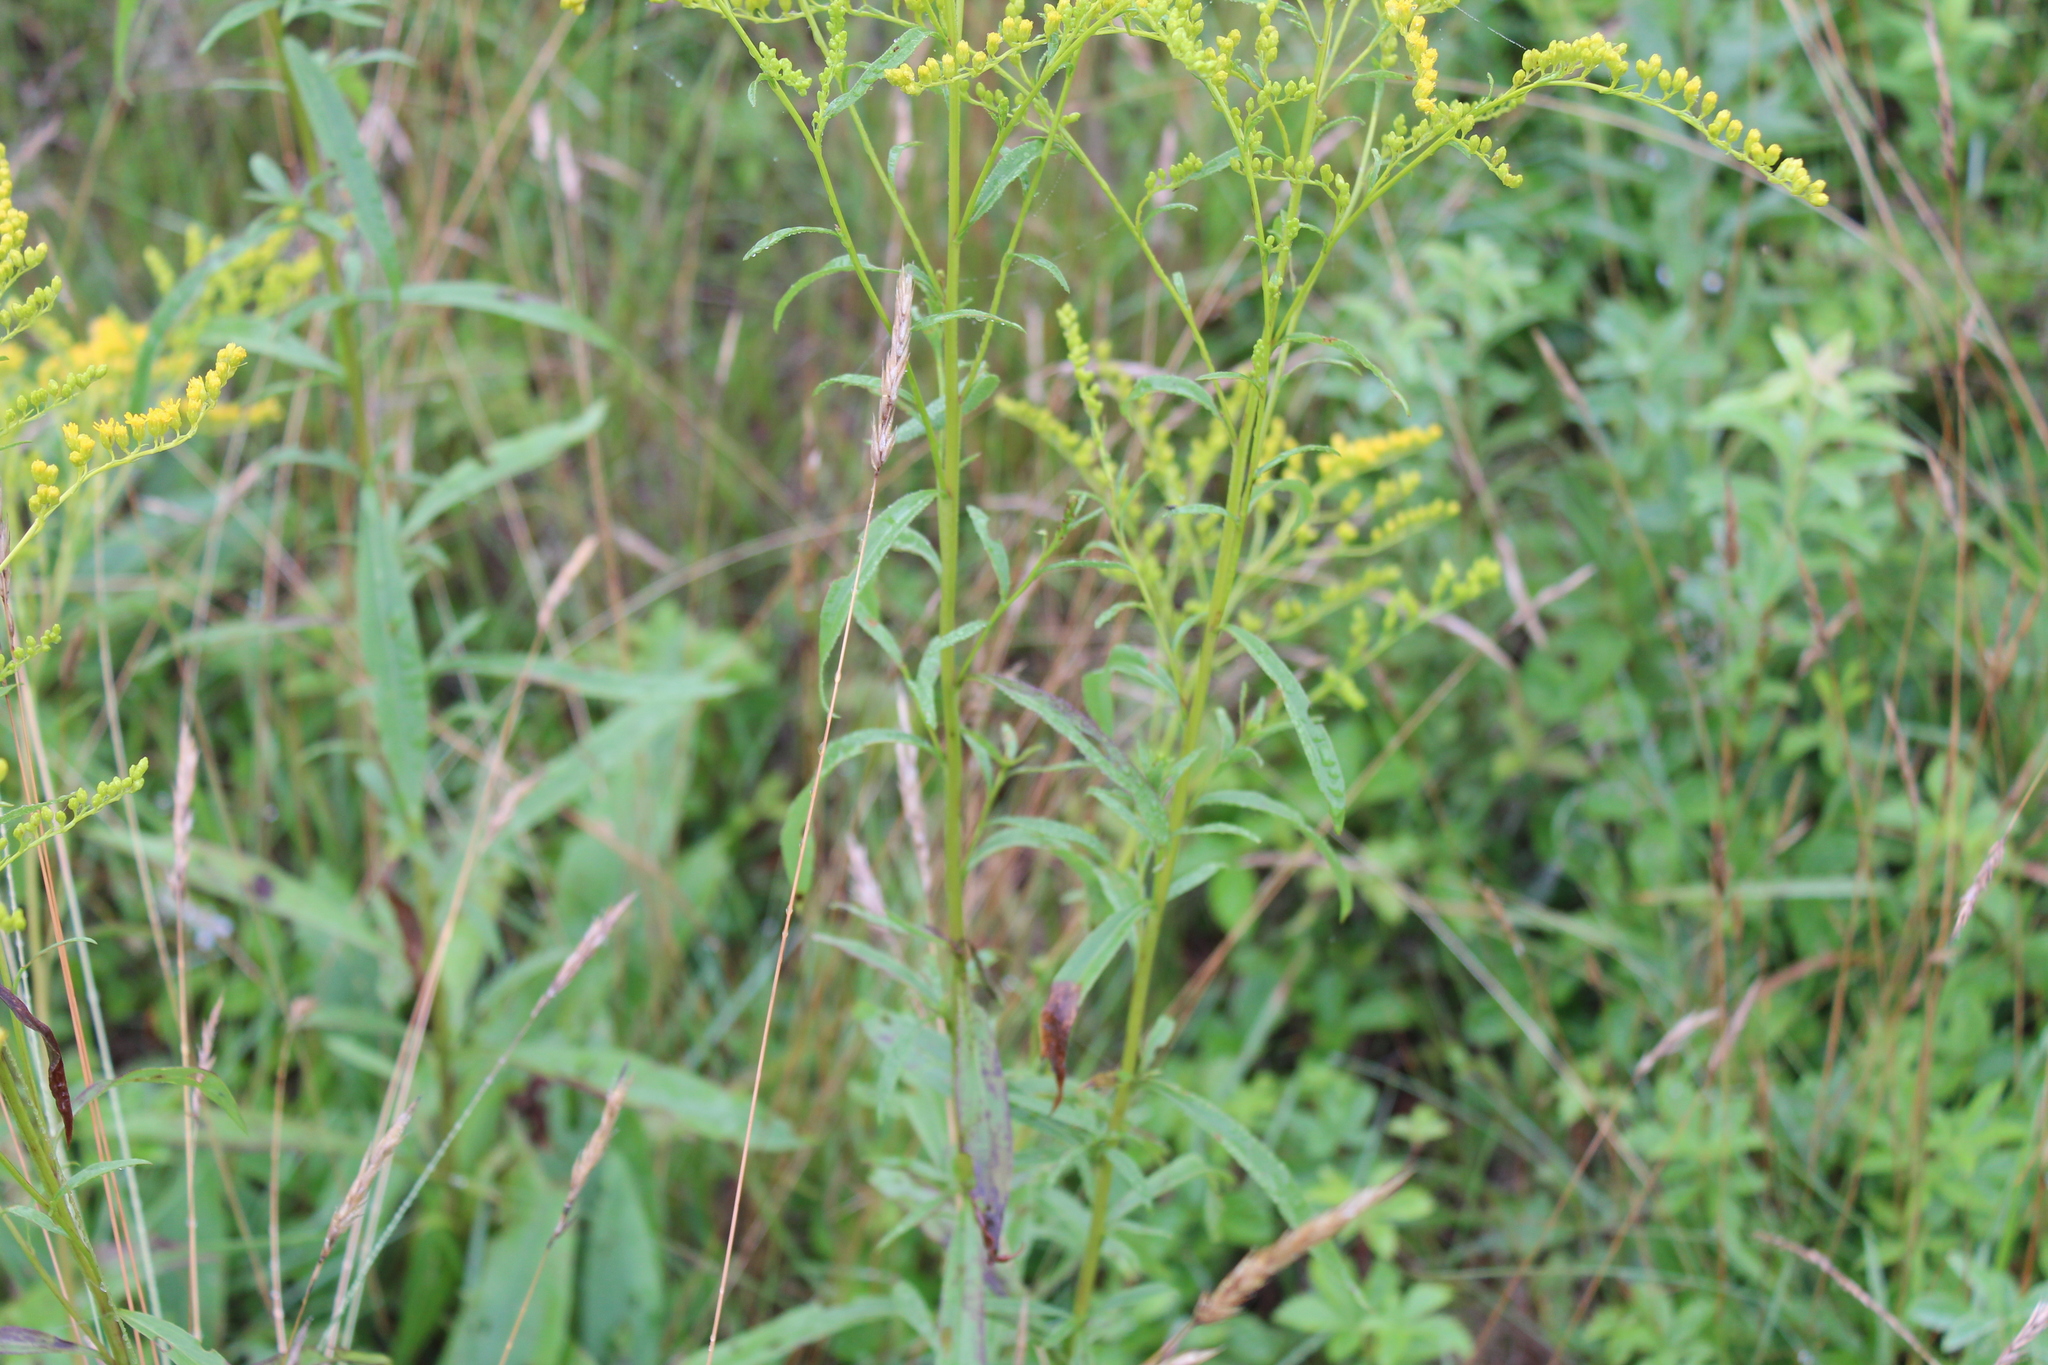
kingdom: Plantae
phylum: Tracheophyta
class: Magnoliopsida
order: Asterales
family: Asteraceae
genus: Solidago
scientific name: Solidago juncea
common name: Early goldenrod
